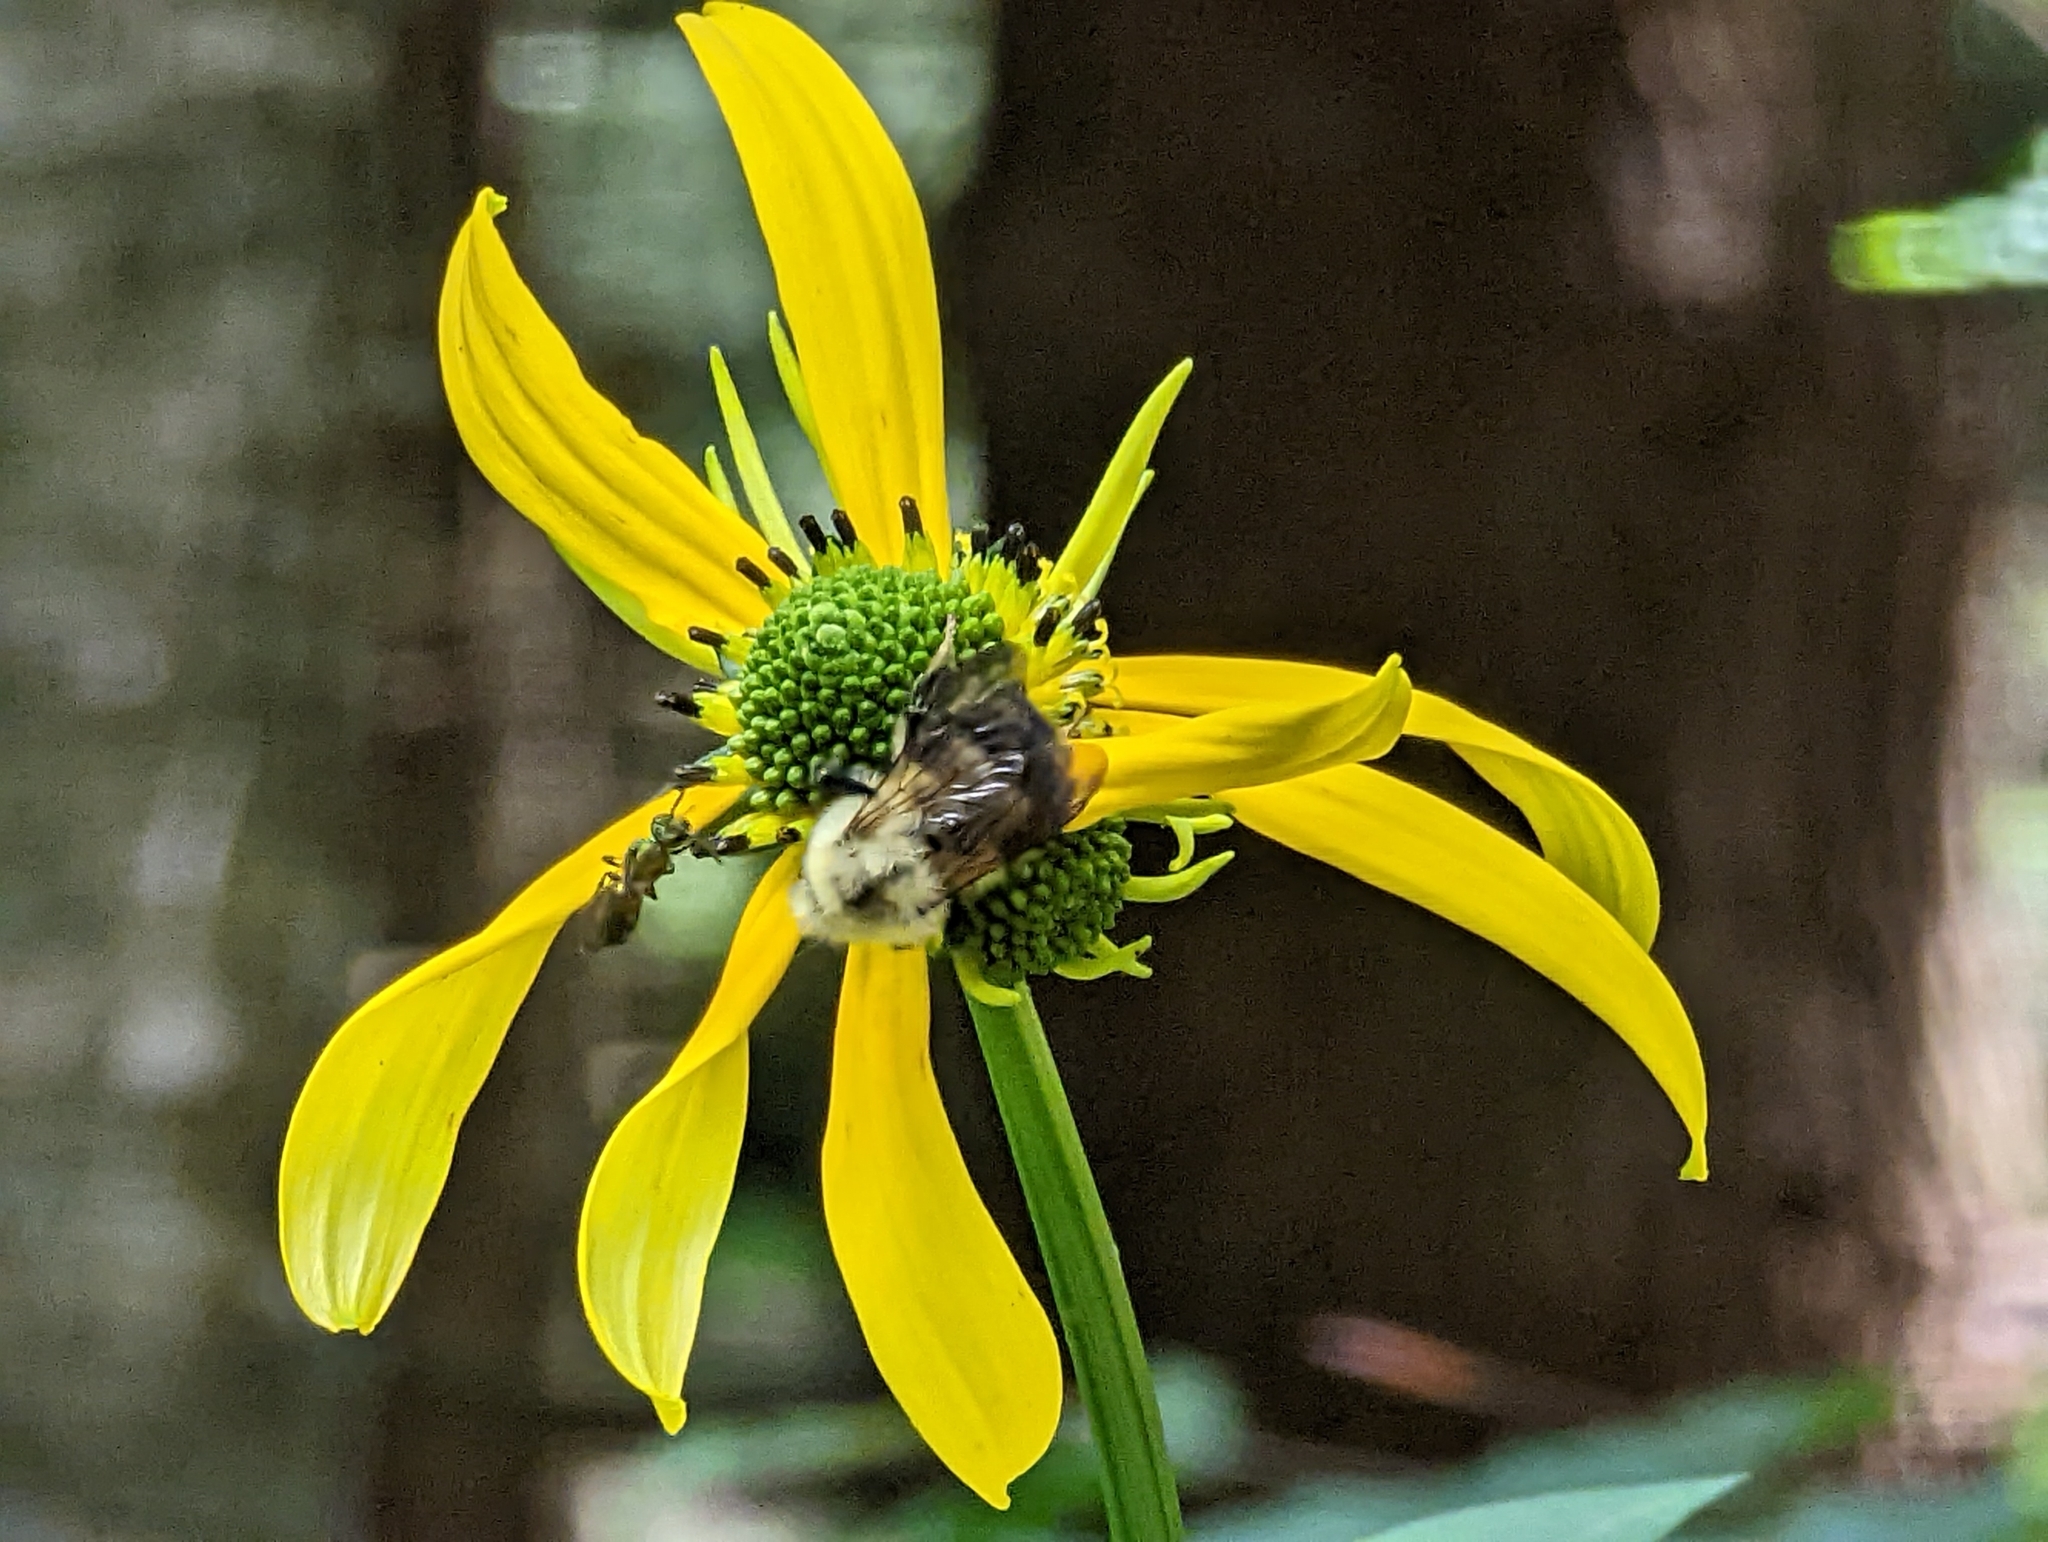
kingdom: Animalia
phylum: Arthropoda
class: Insecta
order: Hymenoptera
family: Apidae
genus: Bombus
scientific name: Bombus bimaculatus
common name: Two-spotted bumble bee
